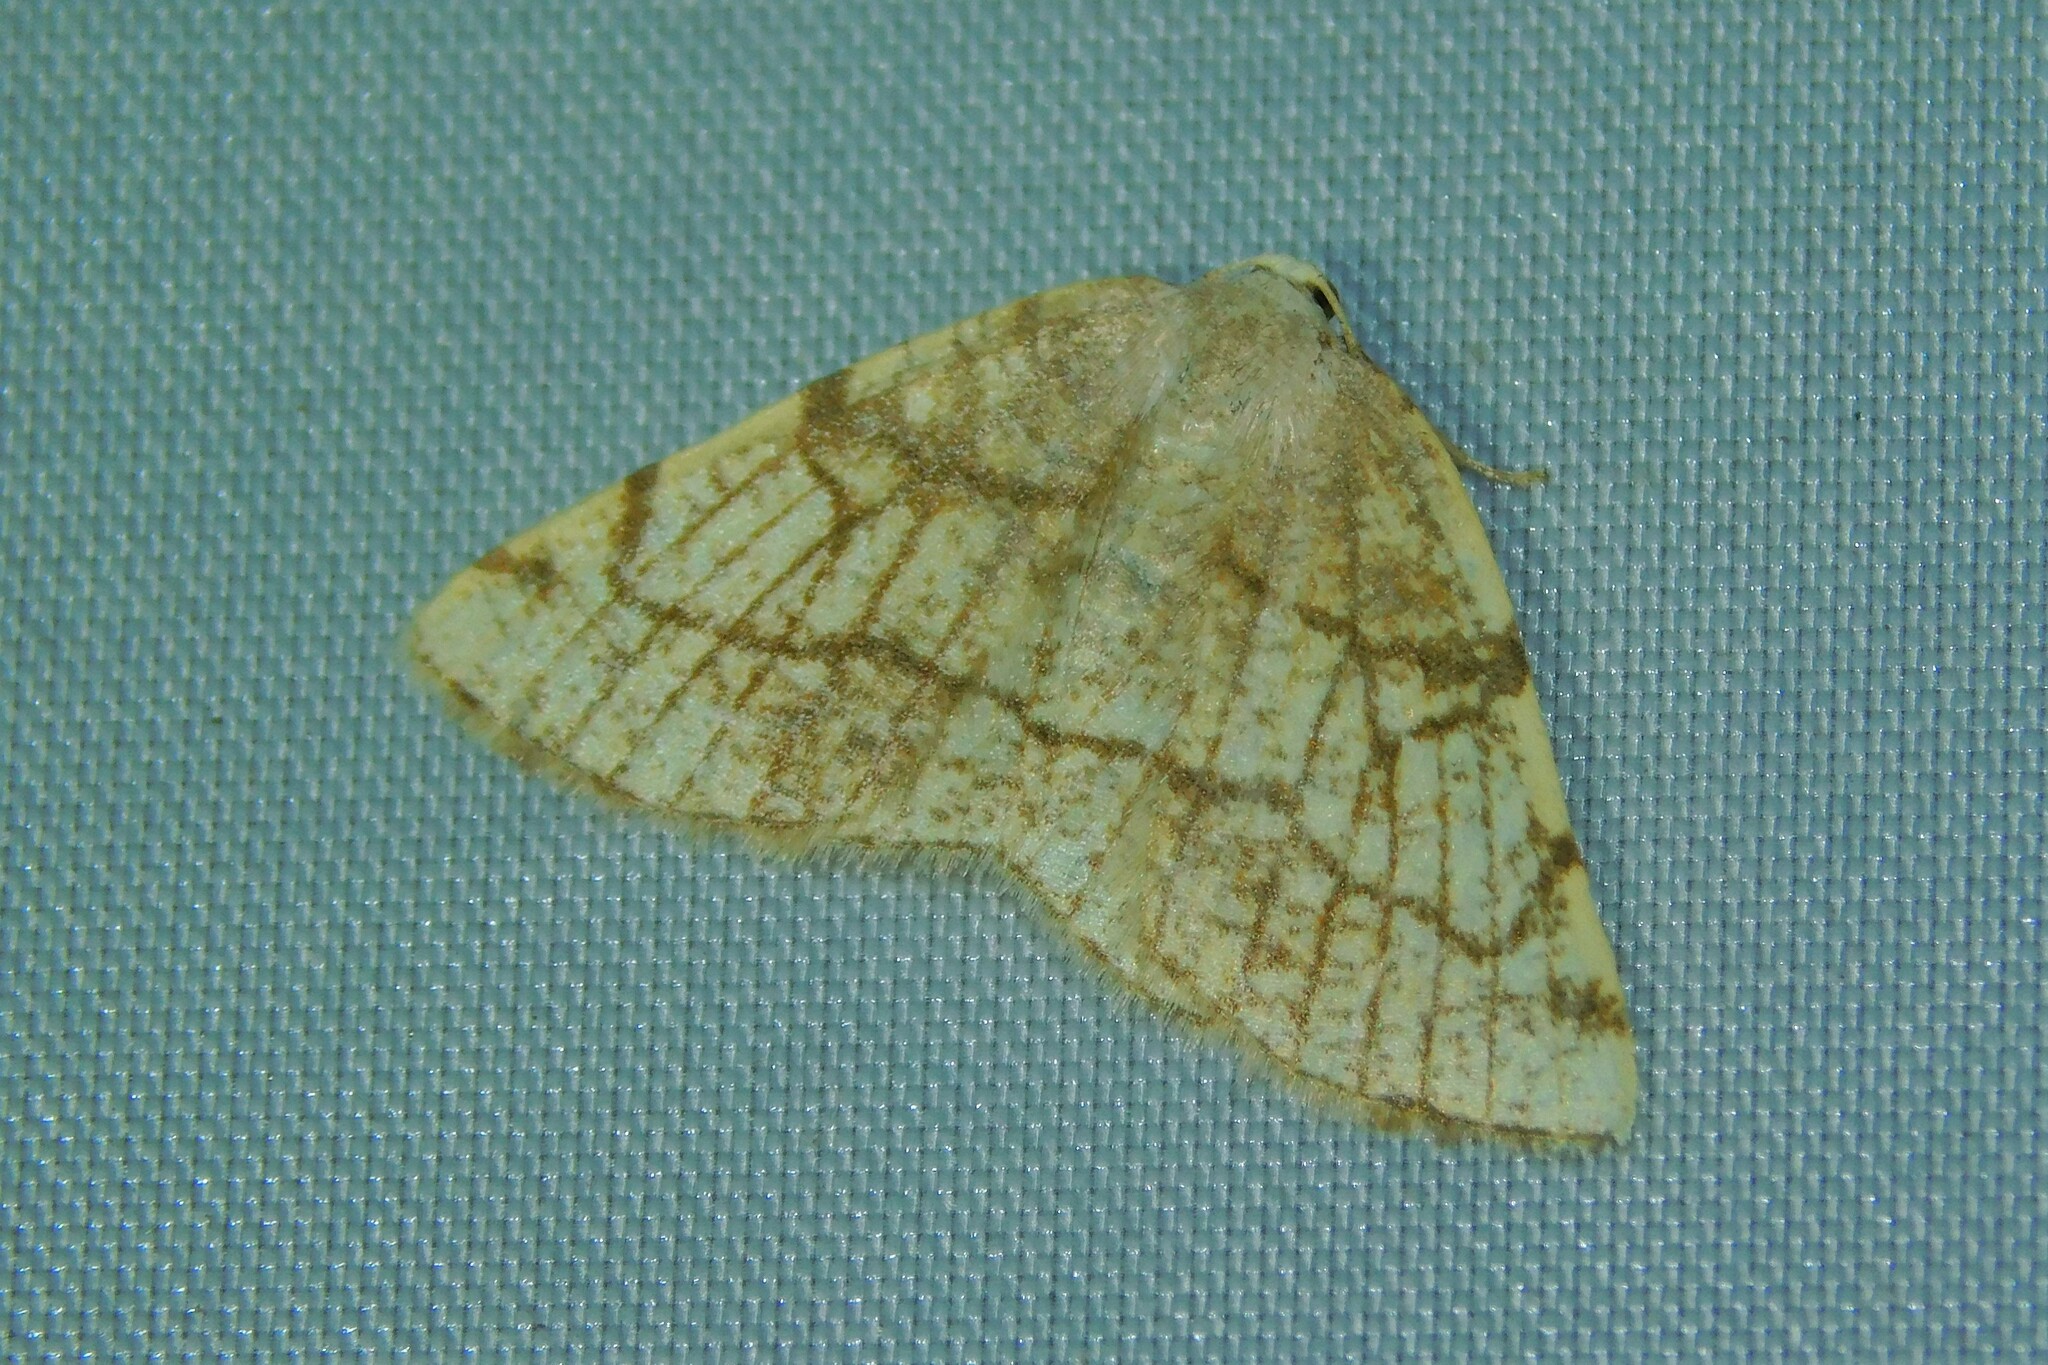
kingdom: Animalia
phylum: Arthropoda
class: Insecta
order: Lepidoptera
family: Geometridae
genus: Stegania
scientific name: Stegania trimaculata
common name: Dorset cream wave
